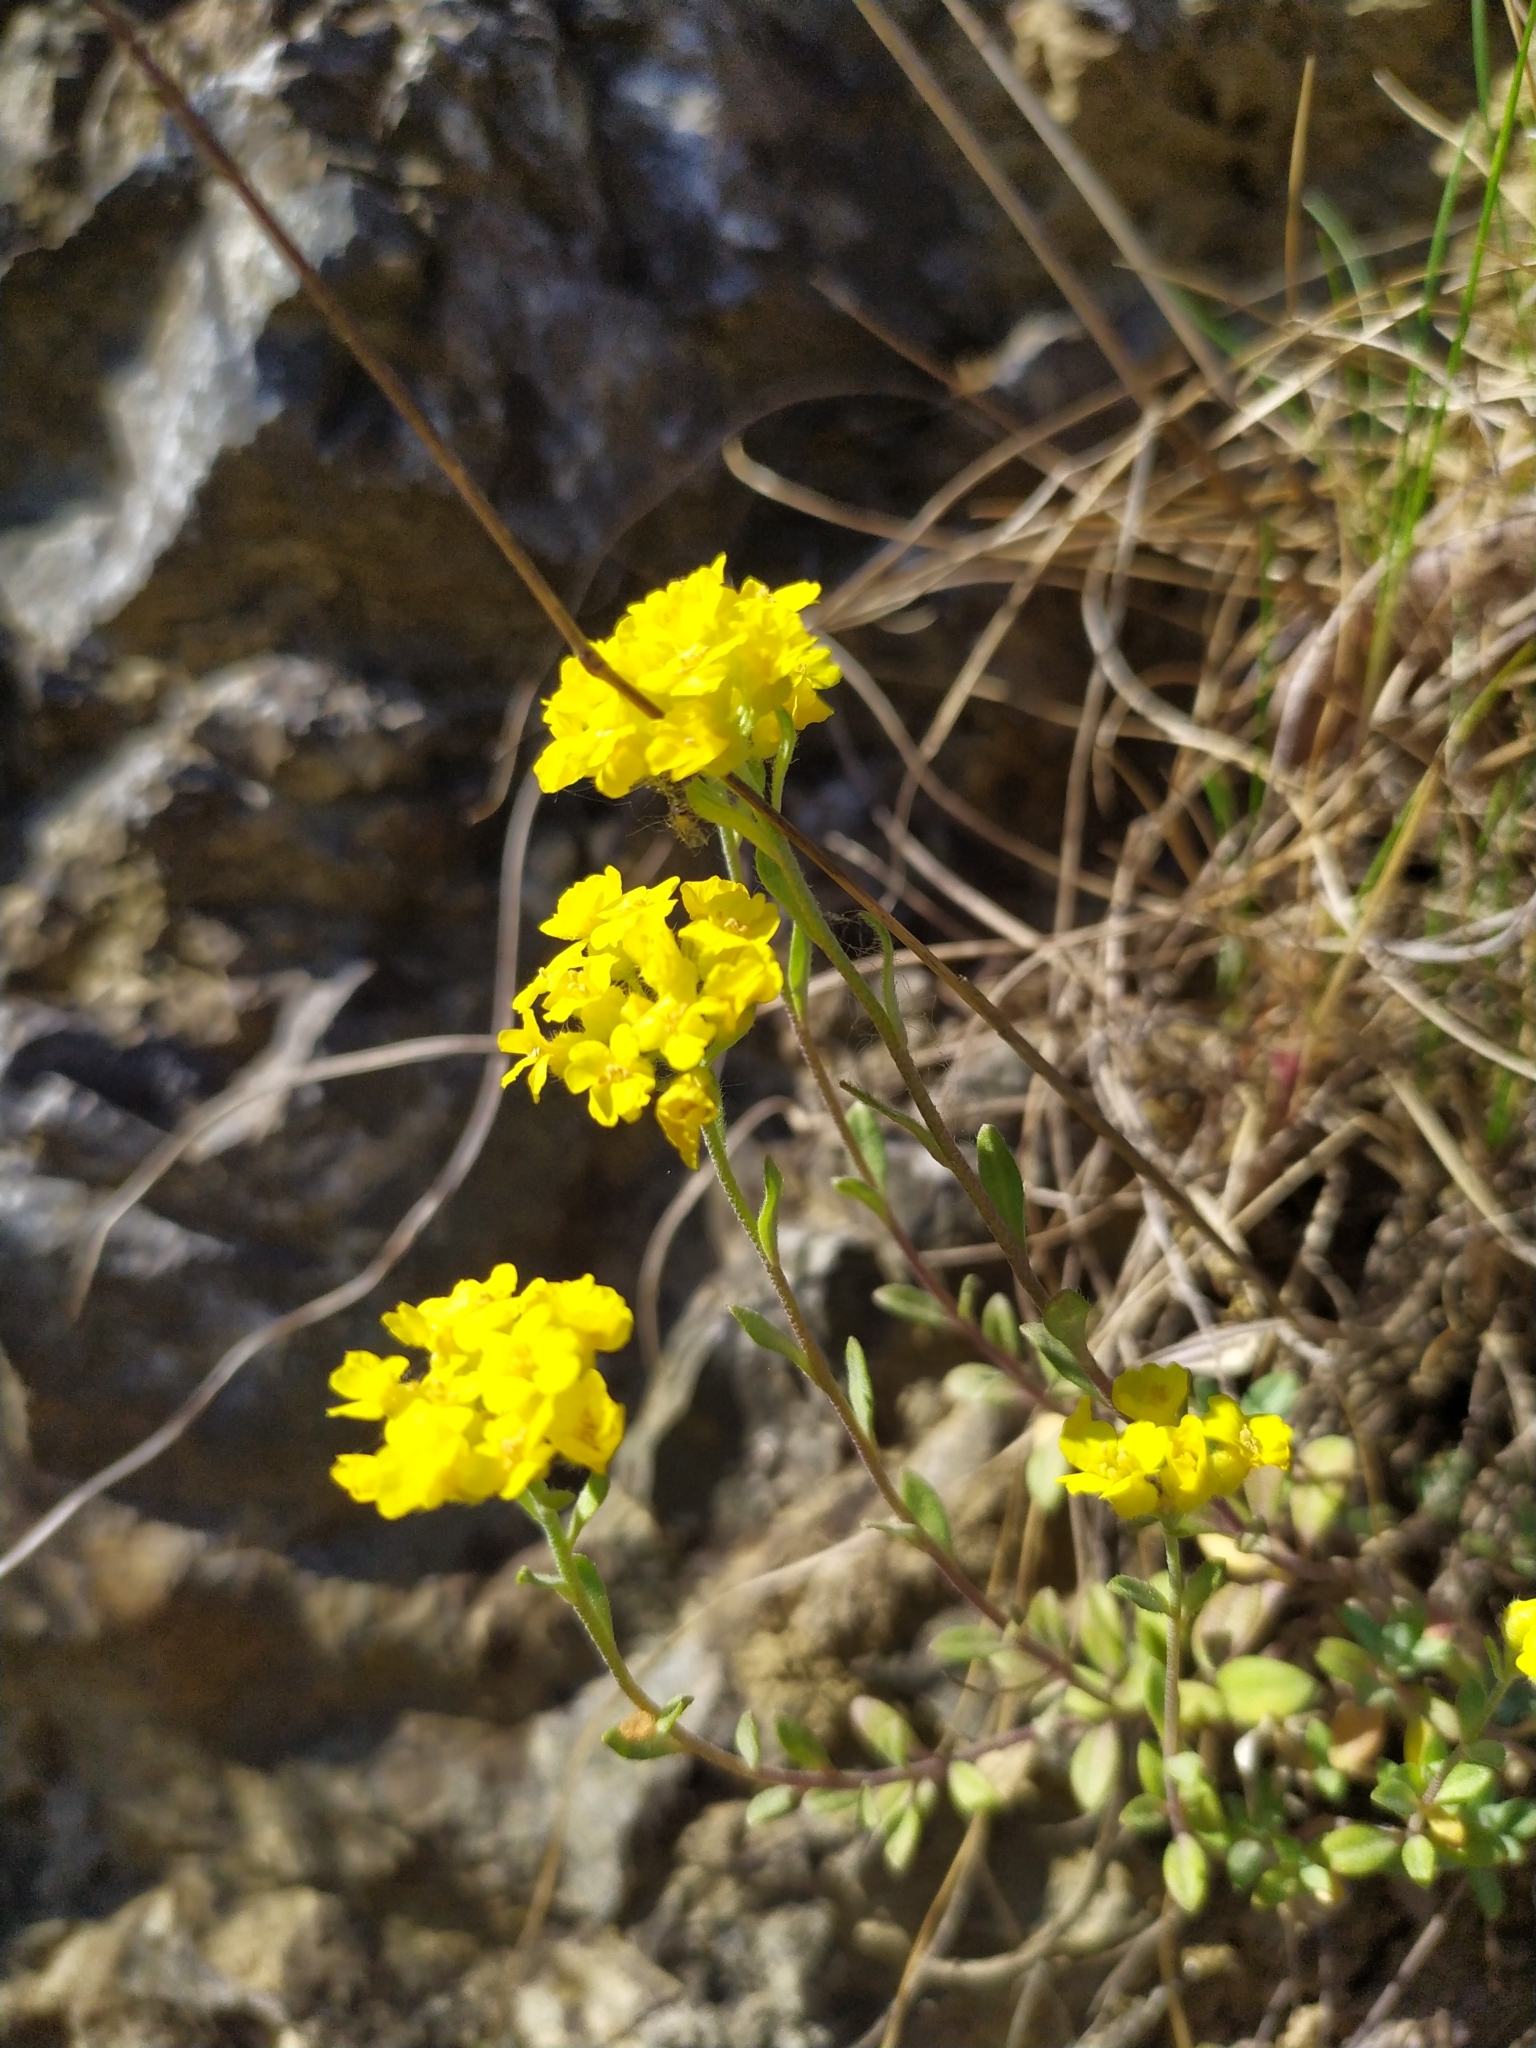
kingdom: Plantae
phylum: Tracheophyta
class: Magnoliopsida
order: Brassicales
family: Brassicaceae
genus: Aurinia
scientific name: Aurinia saxatilis
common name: Golden-tuft alyssum
